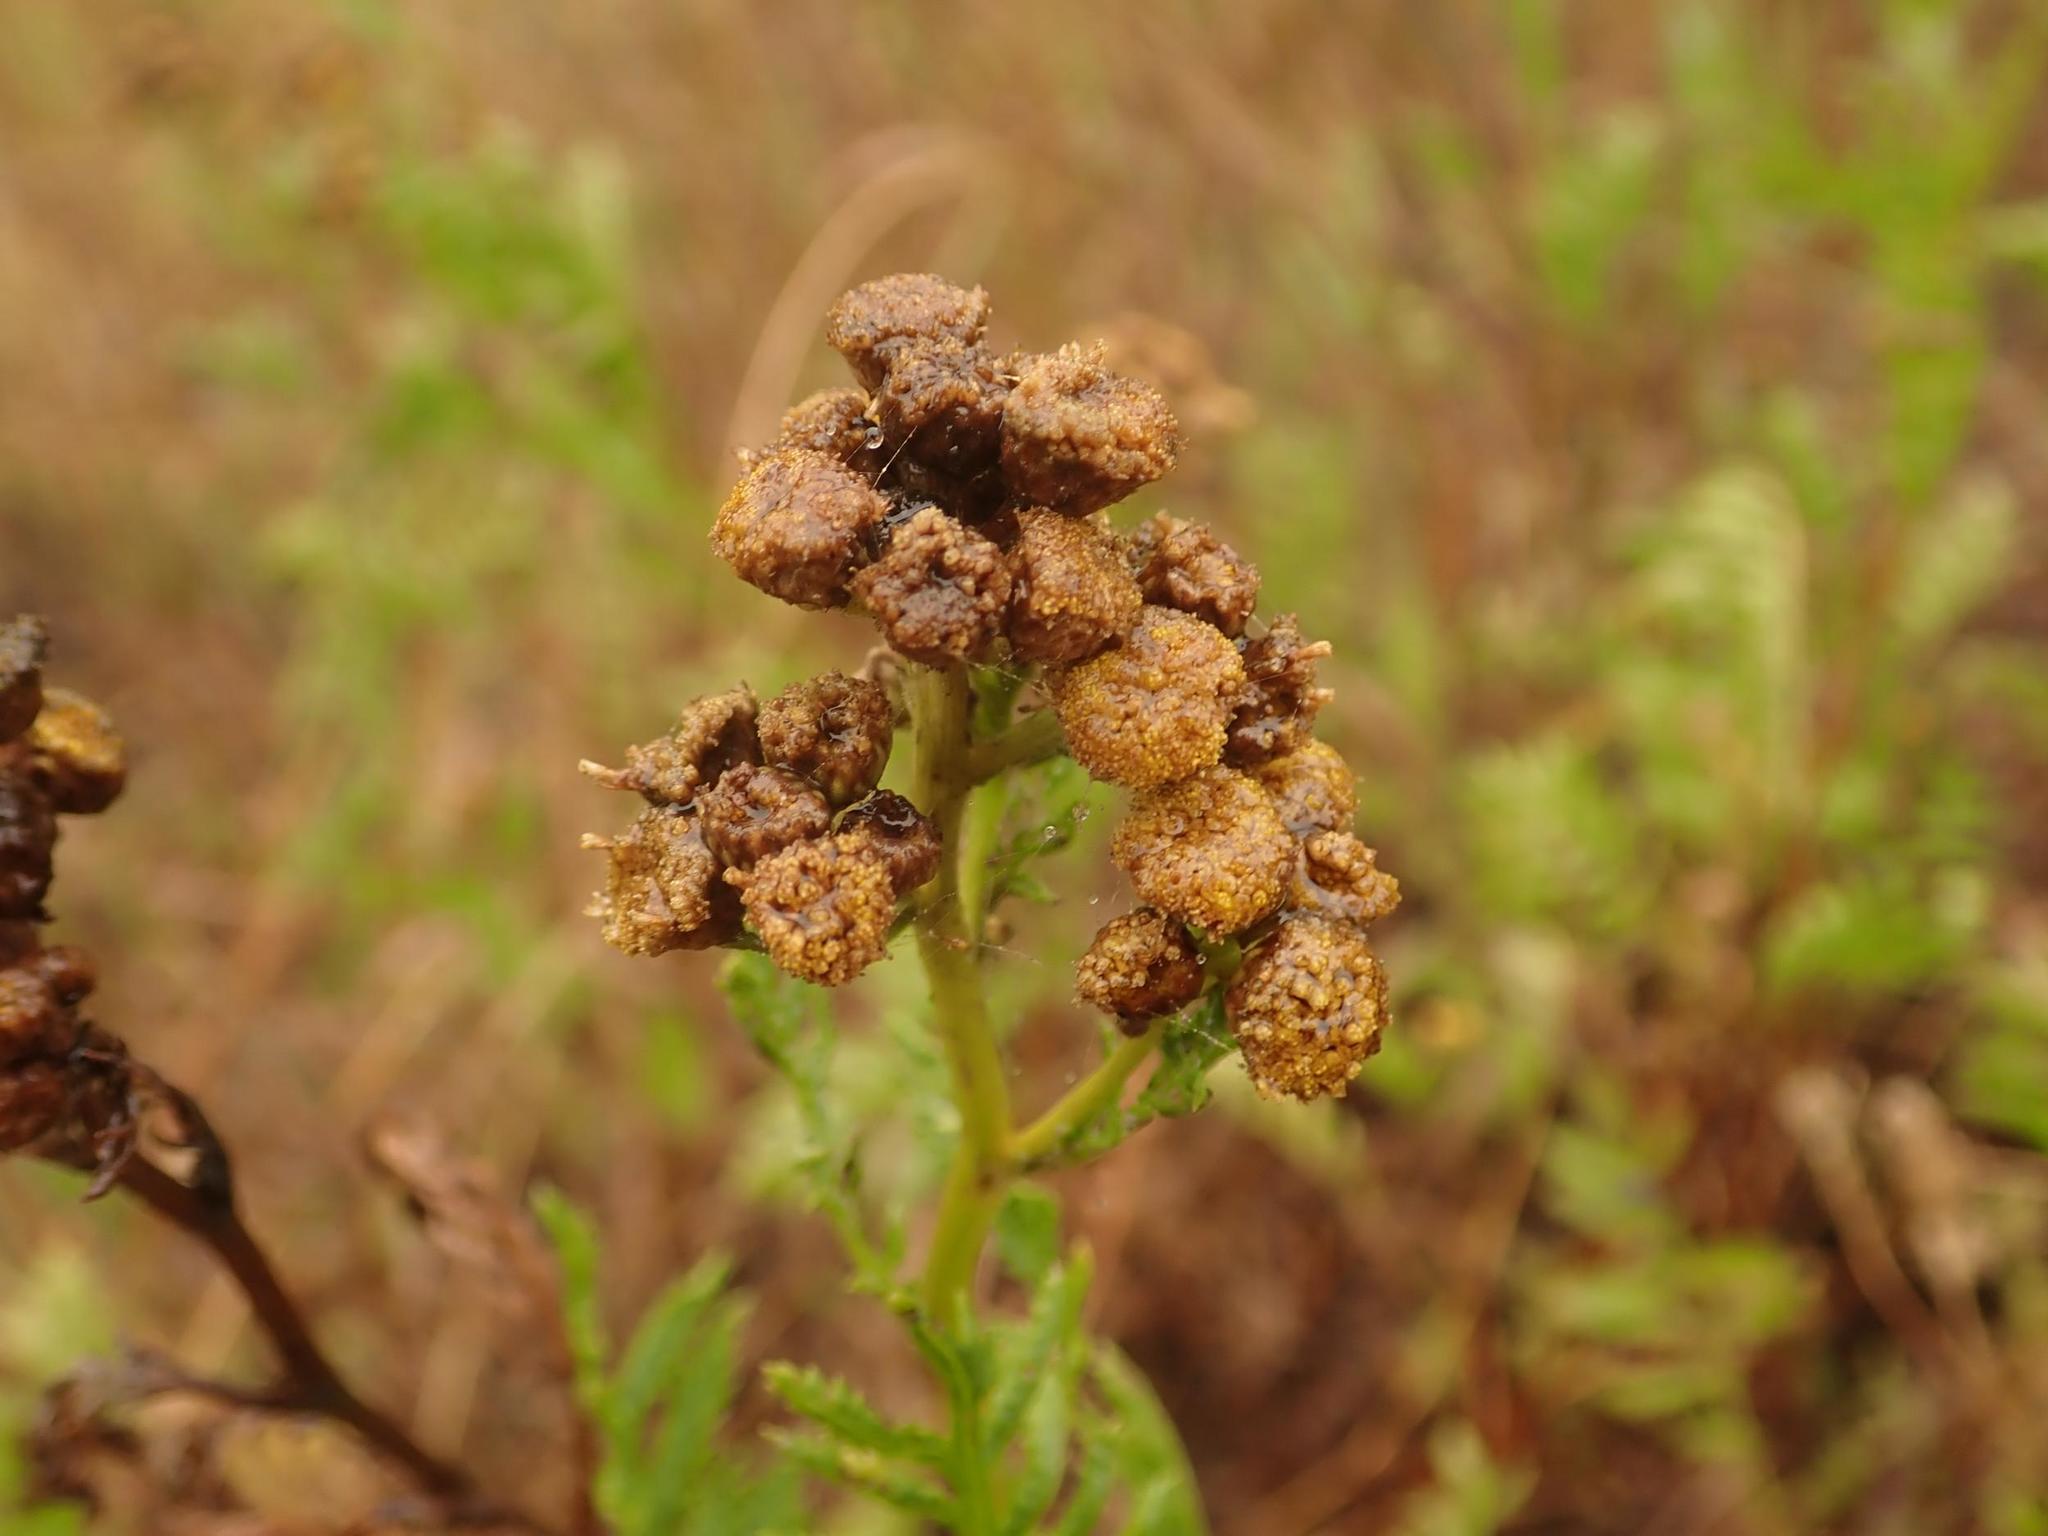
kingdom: Plantae
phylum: Tracheophyta
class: Magnoliopsida
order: Asterales
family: Asteraceae
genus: Tanacetum
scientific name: Tanacetum vulgare
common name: Common tansy
